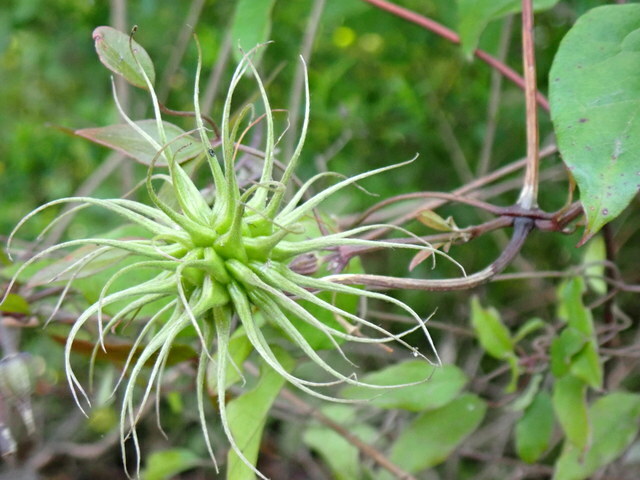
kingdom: Plantae
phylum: Tracheophyta
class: Magnoliopsida
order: Ranunculales
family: Ranunculaceae
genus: Clematis
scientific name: Clematis crispa
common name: Curly clematis
